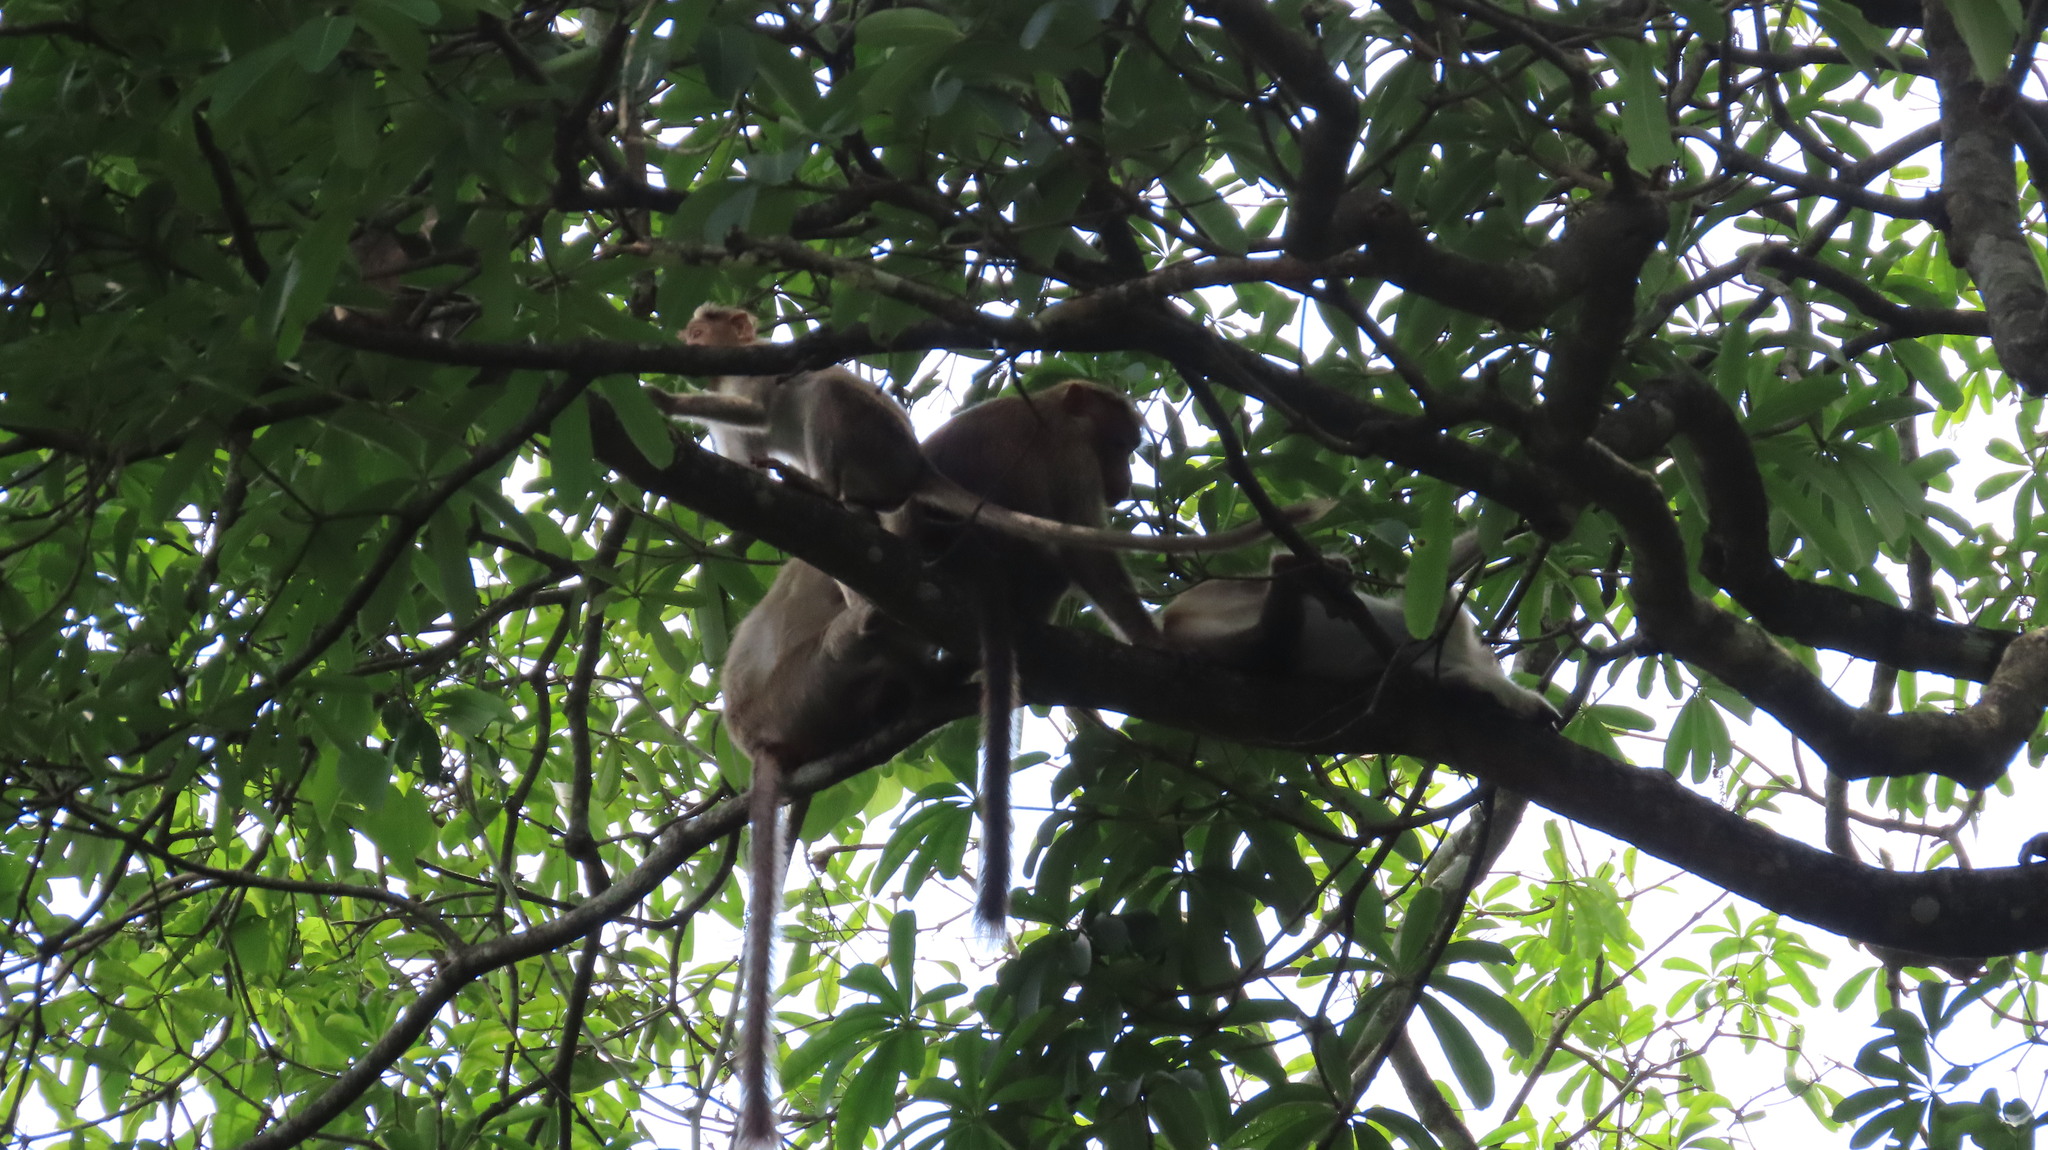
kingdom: Animalia
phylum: Chordata
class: Mammalia
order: Primates
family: Cercopithecidae
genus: Macaca
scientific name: Macaca radiata
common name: Bonnet macaque
